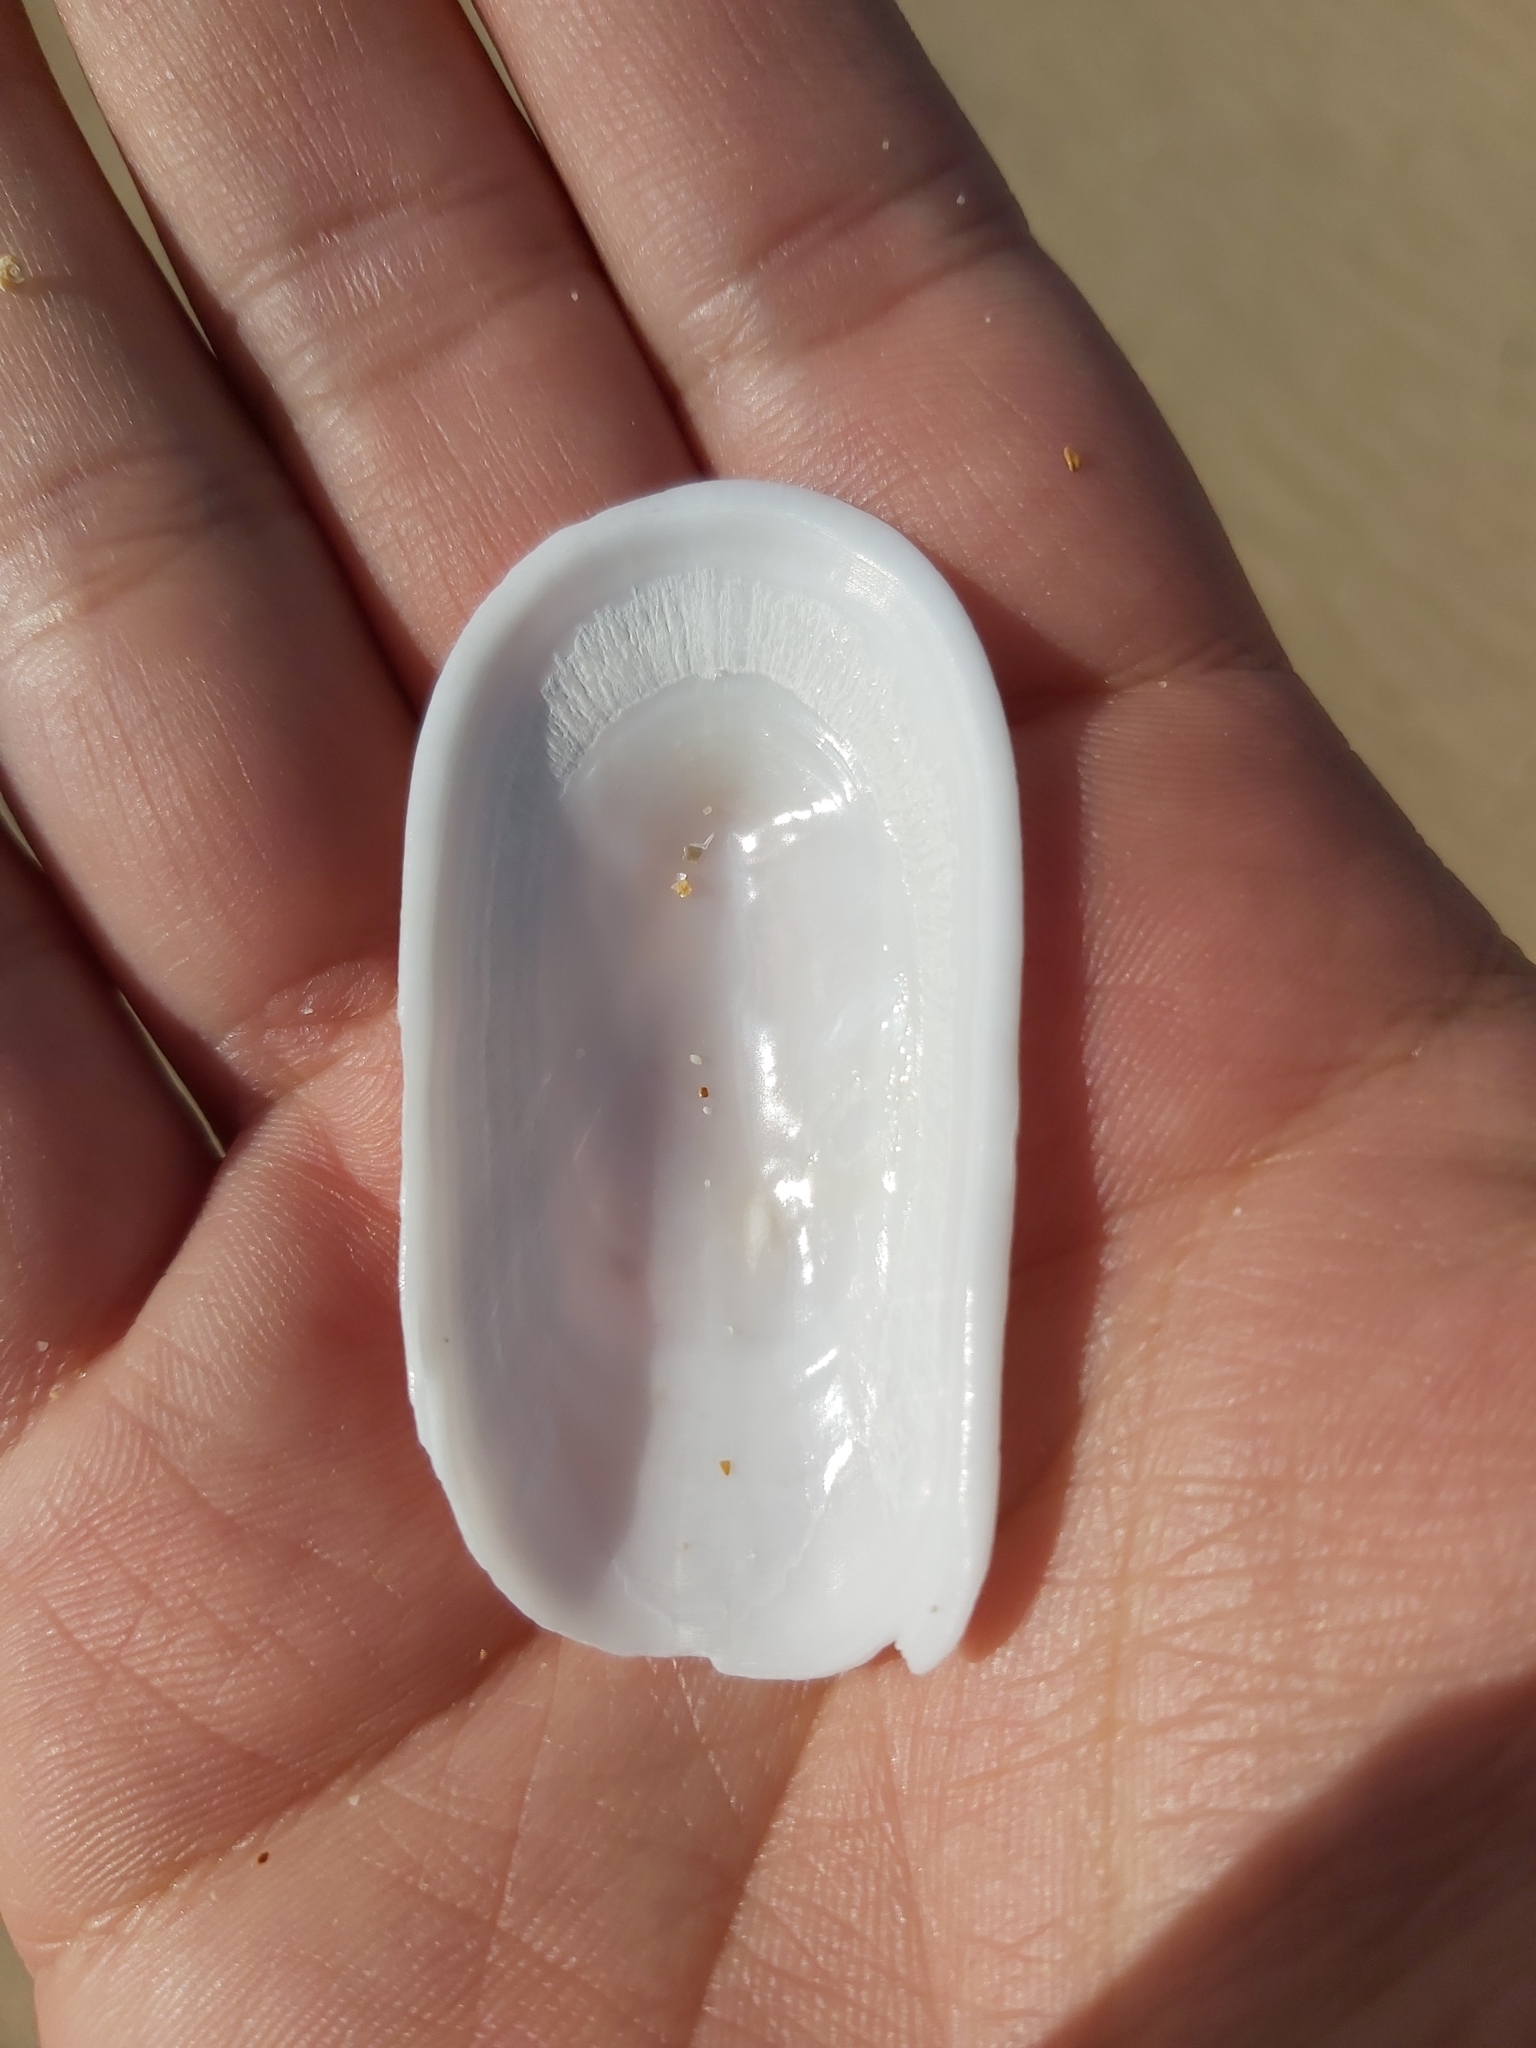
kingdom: Animalia
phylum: Mollusca
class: Gastropoda
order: Lepetellida
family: Fissurellidae
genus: Scutus
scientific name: Scutus antipodes
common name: Duckbill shell
